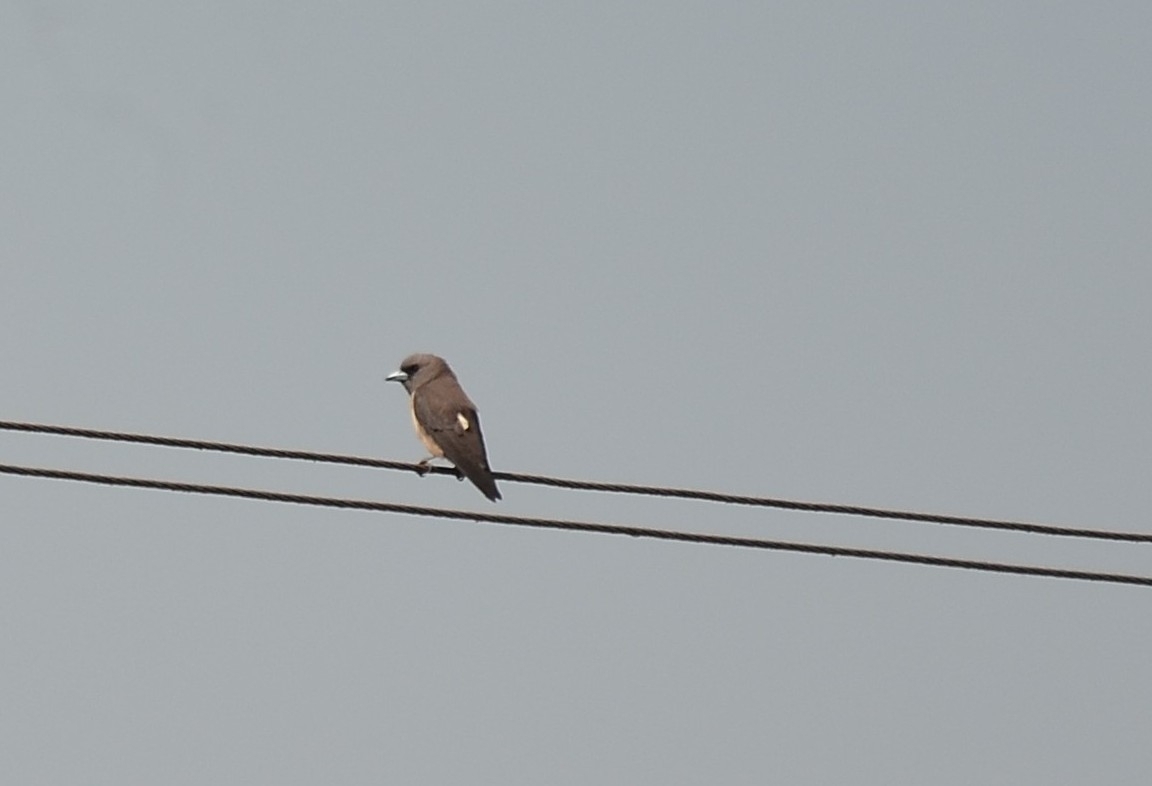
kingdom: Animalia
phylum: Chordata
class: Aves
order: Passeriformes
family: Artamidae
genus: Artamus
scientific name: Artamus fuscus
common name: Ashy woodswallow
